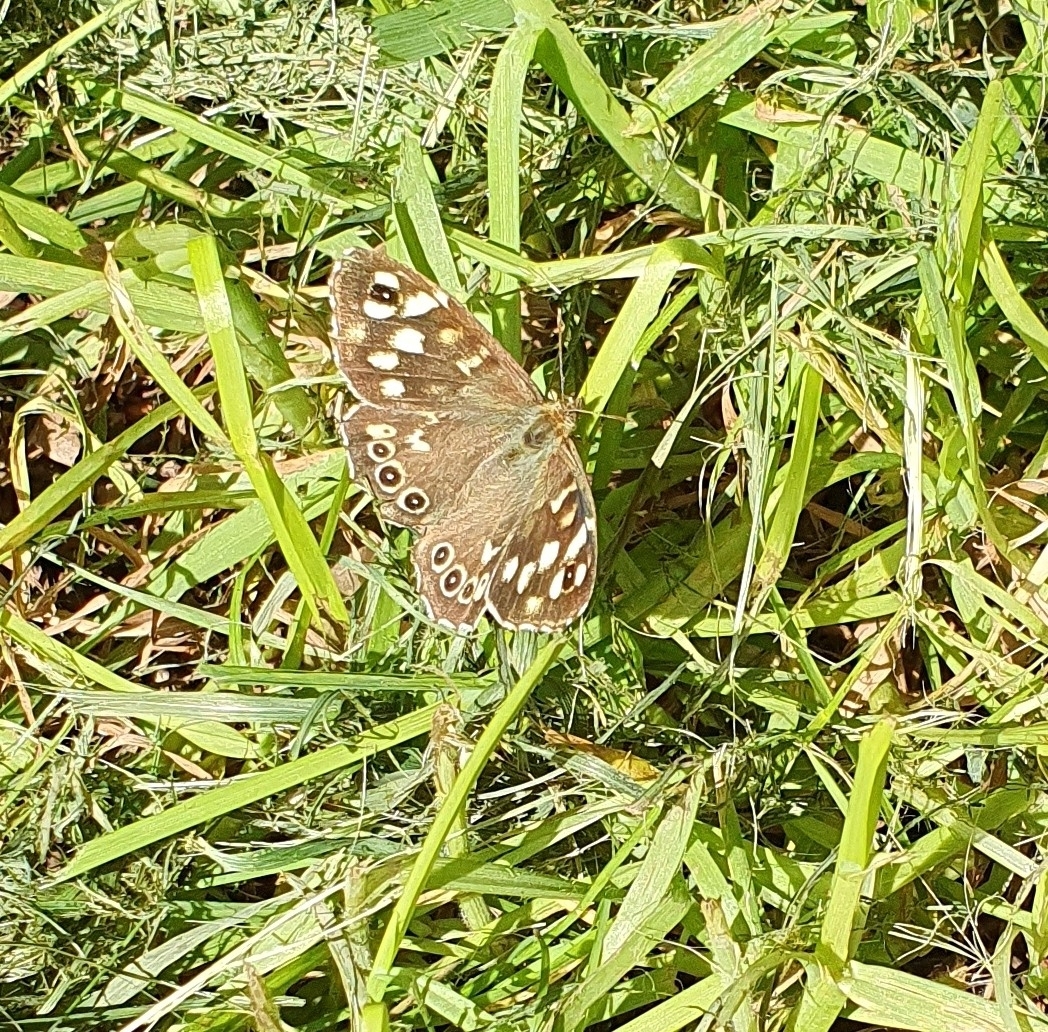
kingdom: Animalia
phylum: Arthropoda
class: Insecta
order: Lepidoptera
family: Nymphalidae
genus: Pararge
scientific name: Pararge aegeria
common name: Speckled wood
